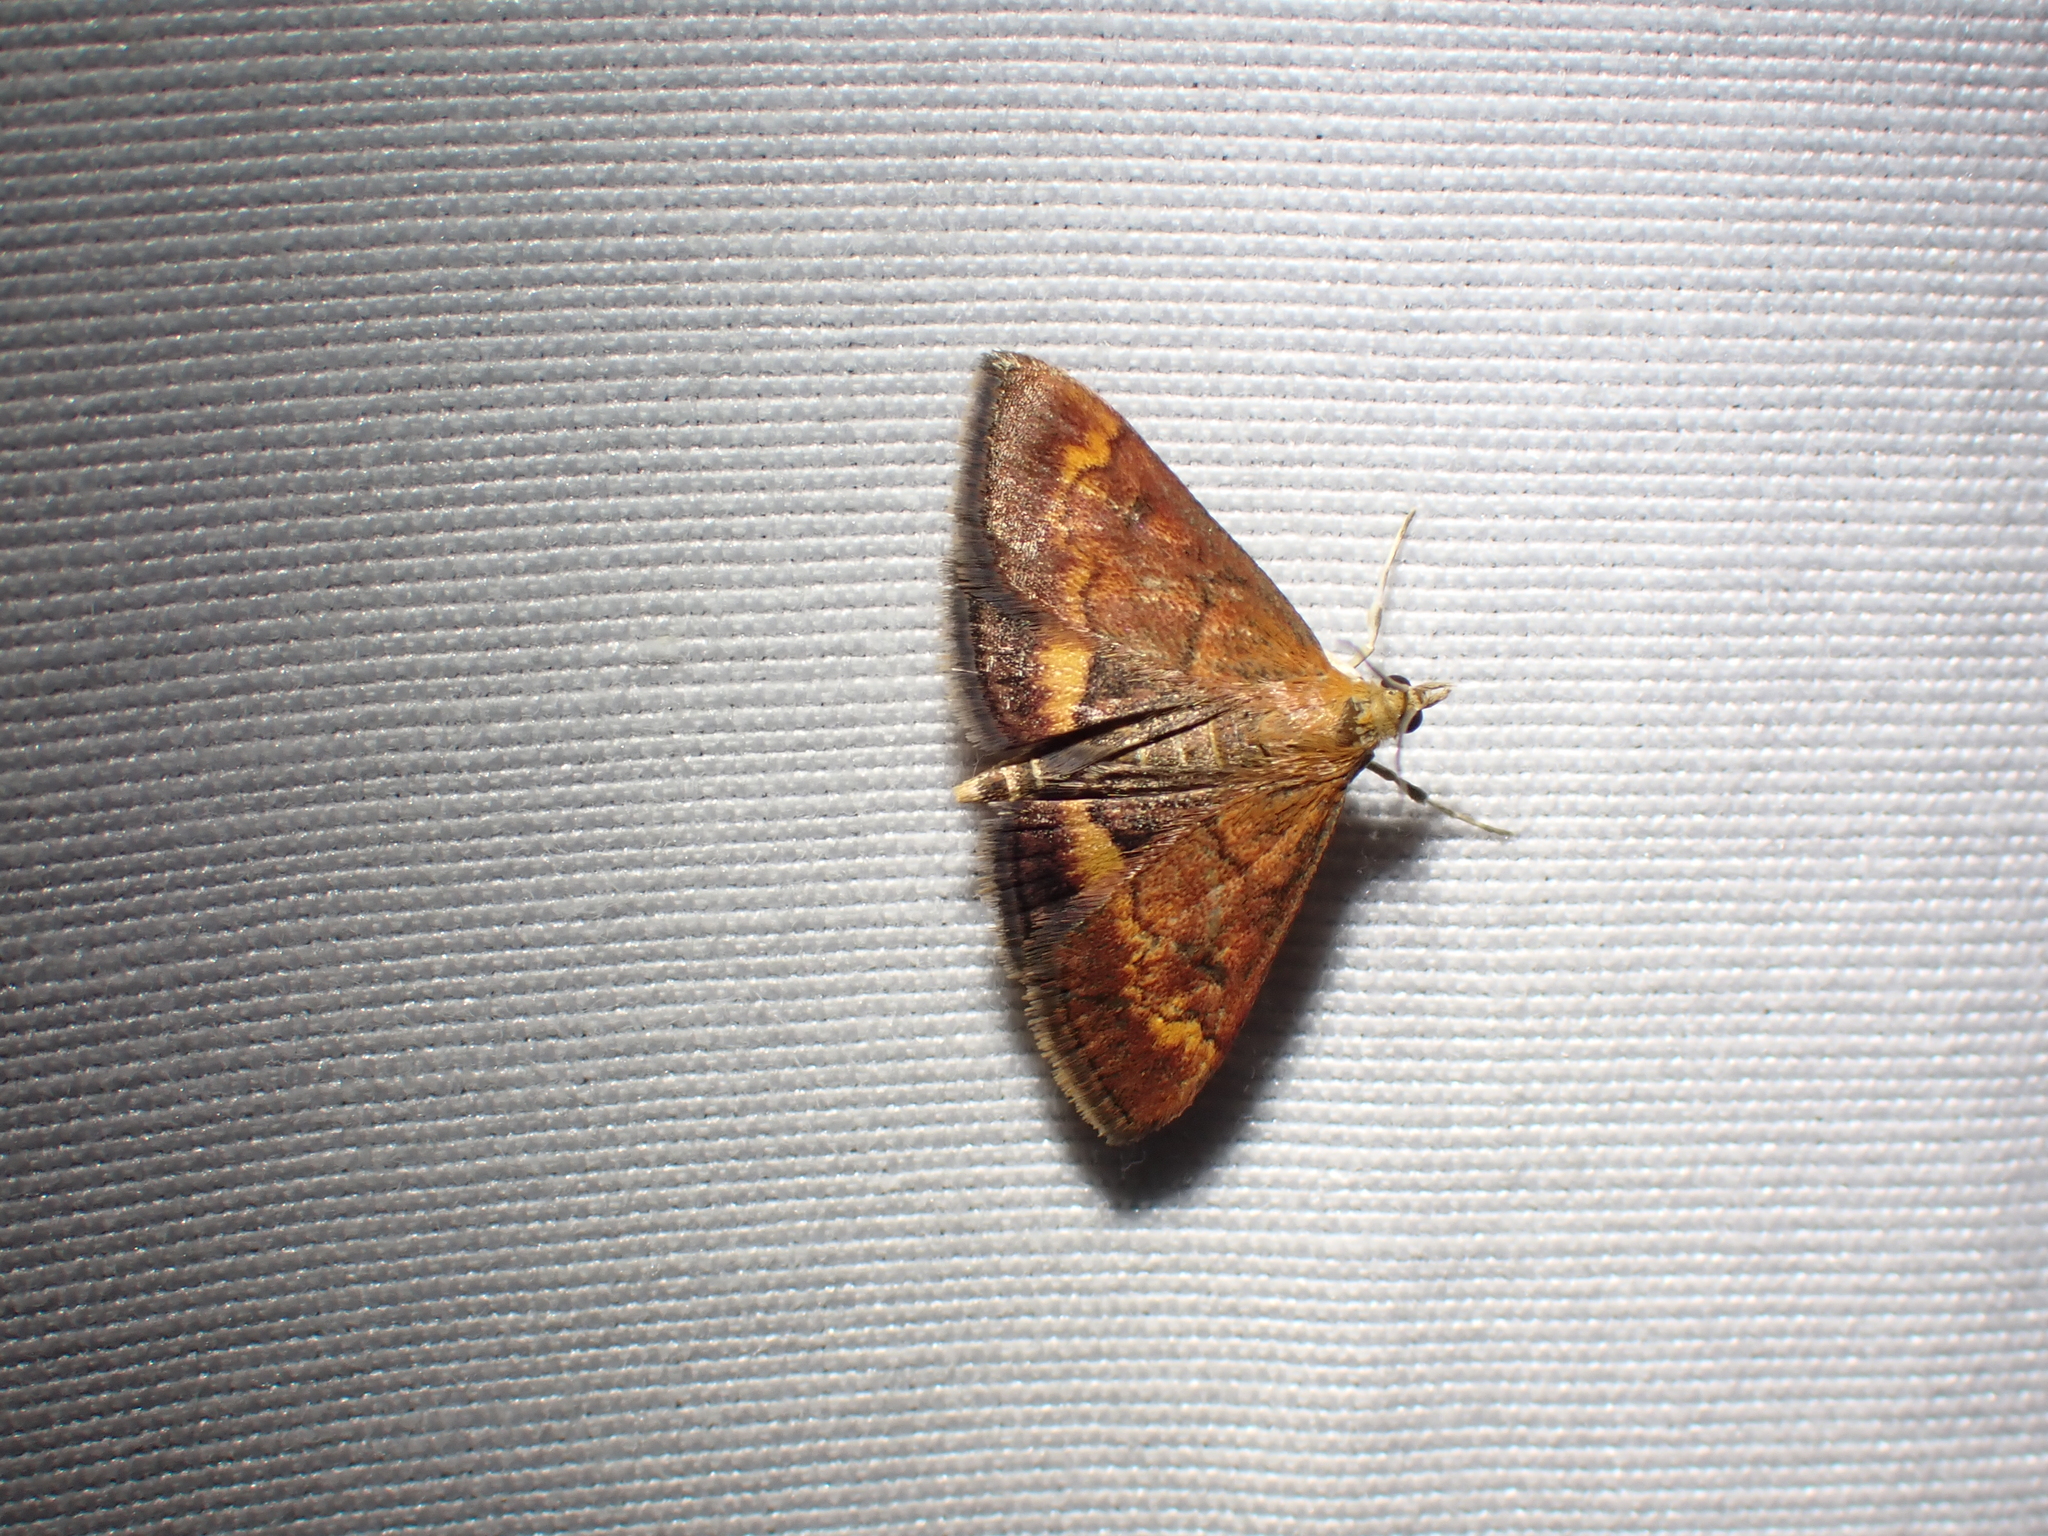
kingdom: Animalia
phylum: Arthropoda
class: Insecta
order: Lepidoptera
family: Crambidae
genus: Pyrausta
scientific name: Pyrausta californicalis
